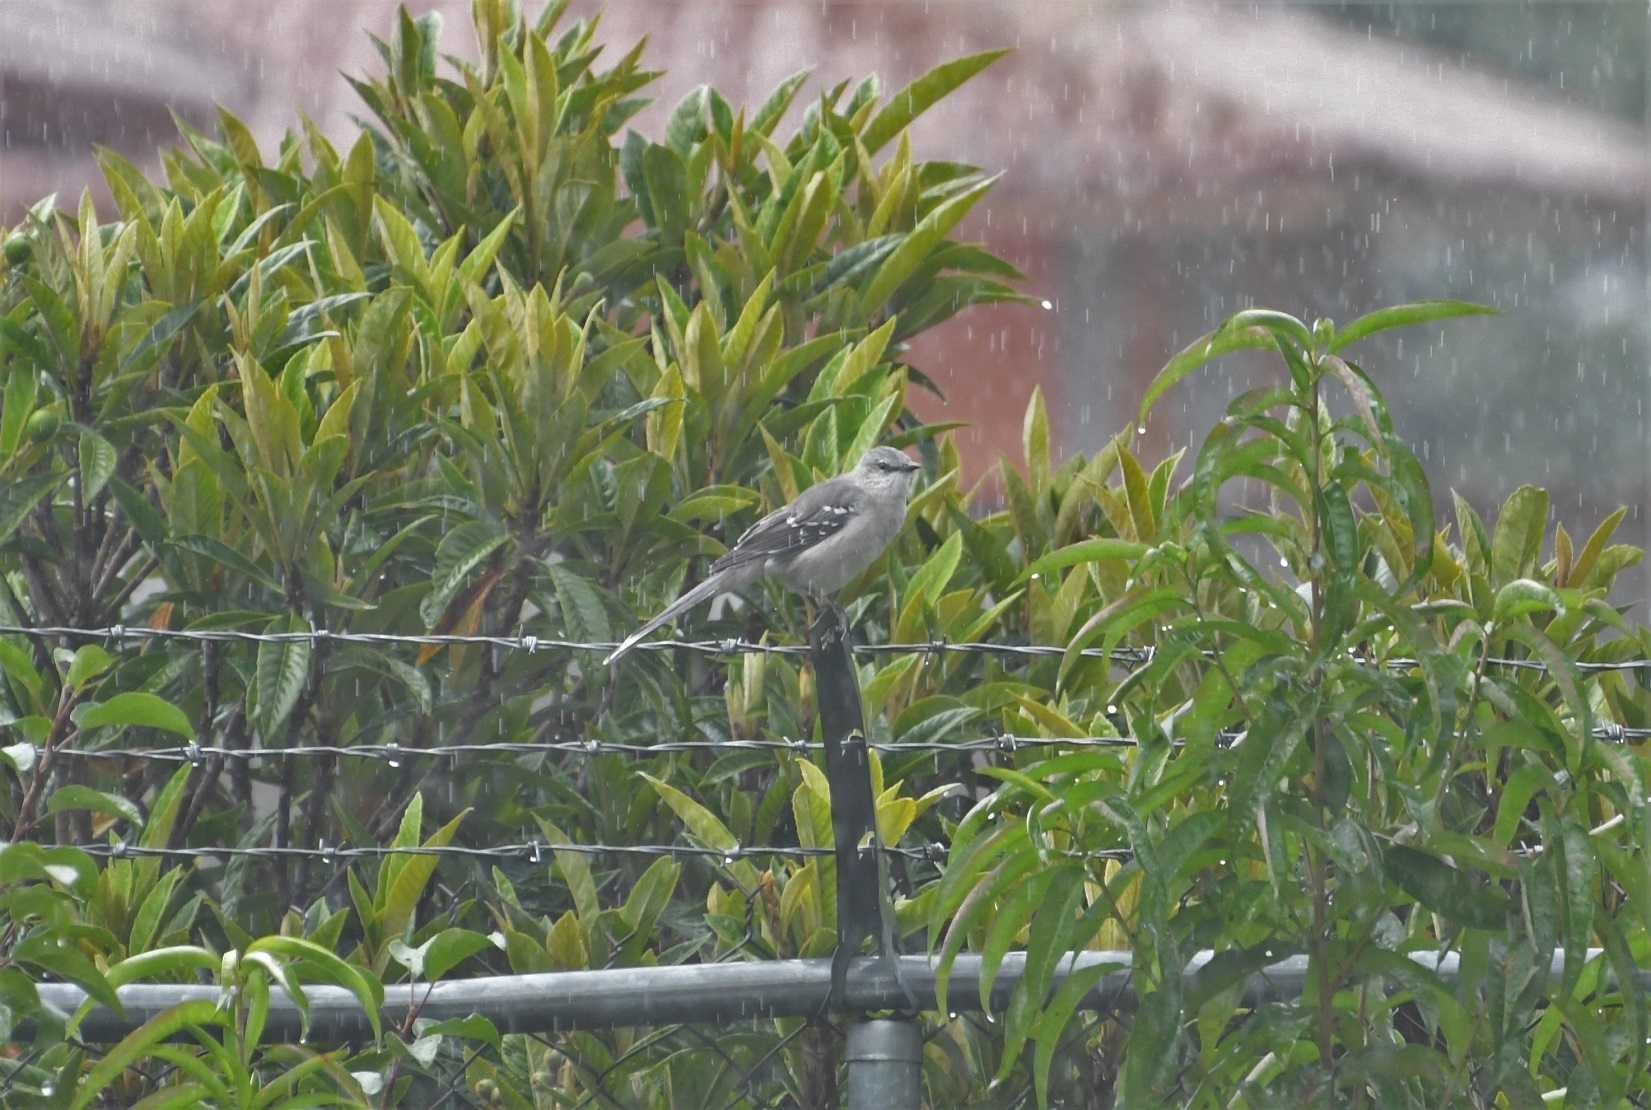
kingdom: Animalia
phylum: Chordata
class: Aves
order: Passeriformes
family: Mimidae
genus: Mimus
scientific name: Mimus gilvus
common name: Tropical mockingbird
